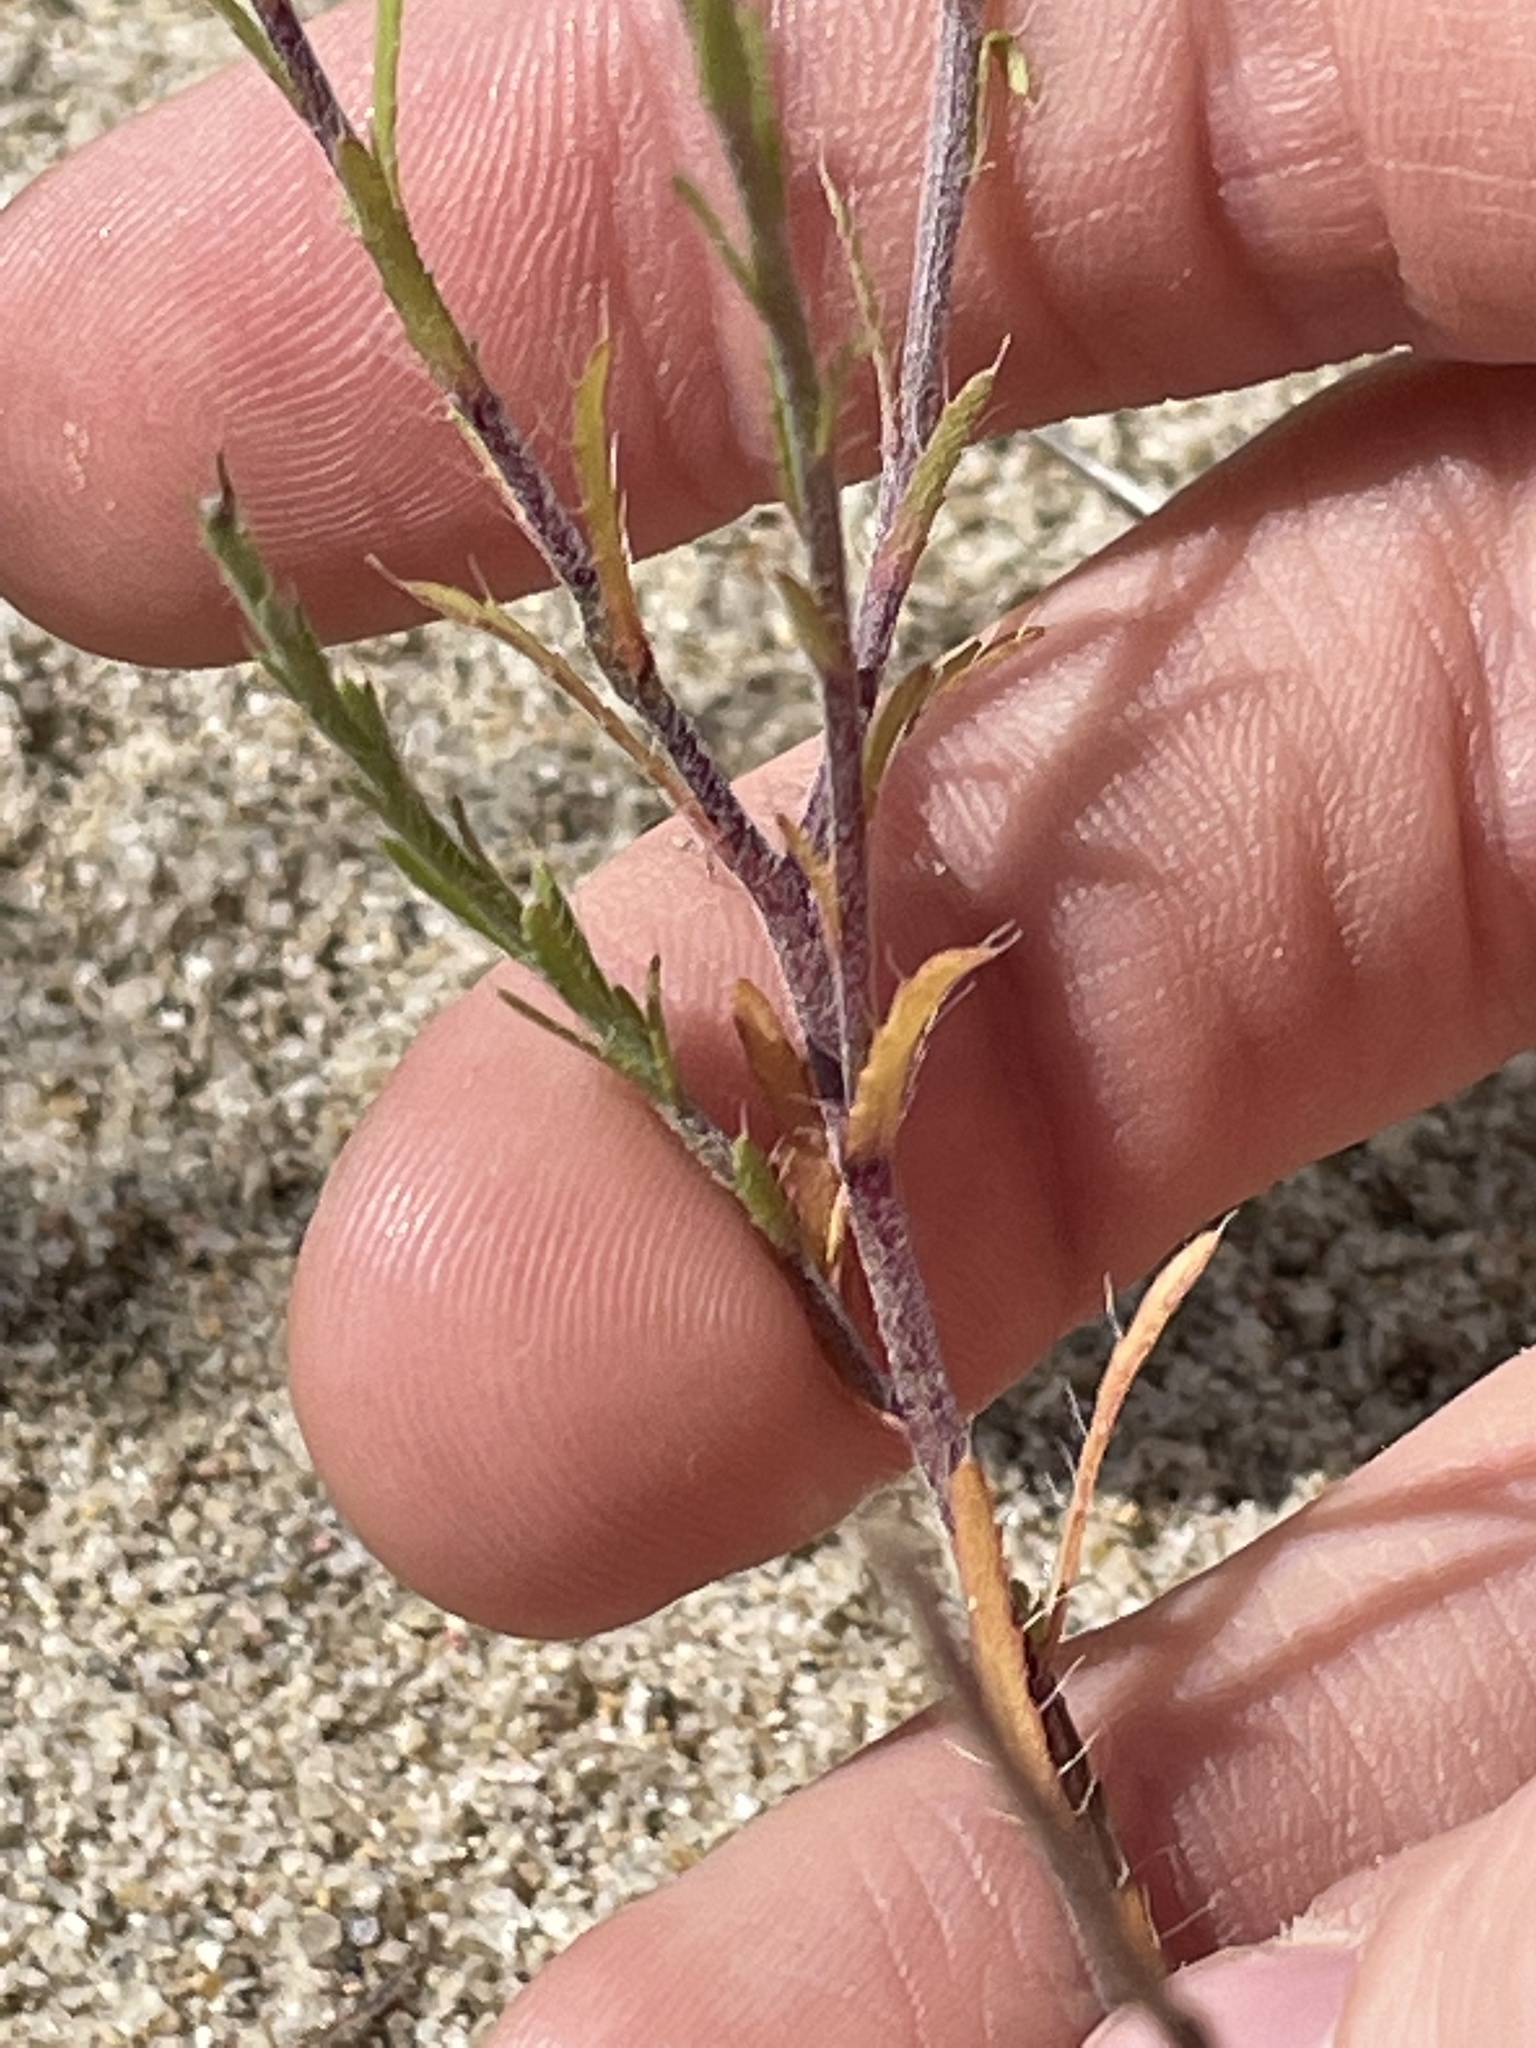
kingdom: Plantae
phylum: Tracheophyta
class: Magnoliopsida
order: Asterales
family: Asteraceae
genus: Xanthisma
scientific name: Xanthisma gracile
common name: Slender goldenweed
